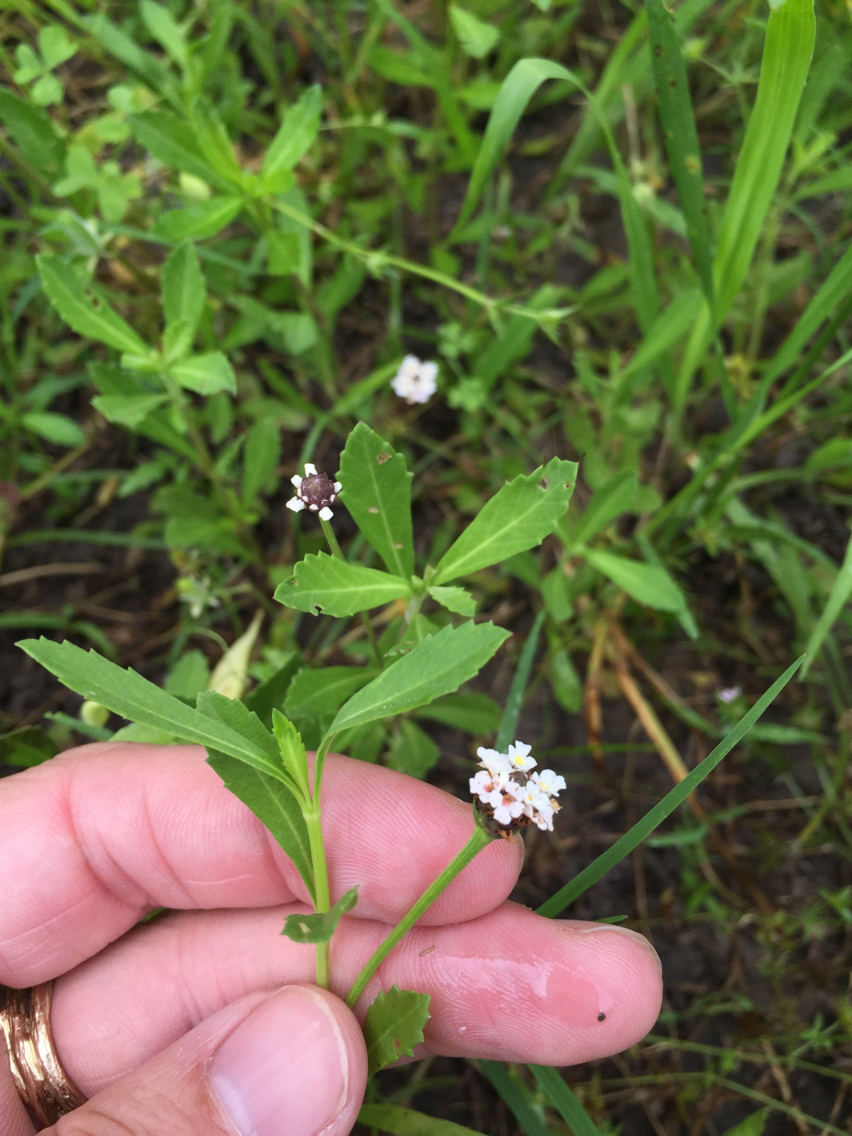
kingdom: Plantae
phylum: Tracheophyta
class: Magnoliopsida
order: Lamiales
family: Verbenaceae
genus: Phyla
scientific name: Phyla nodiflora
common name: Frogfruit
